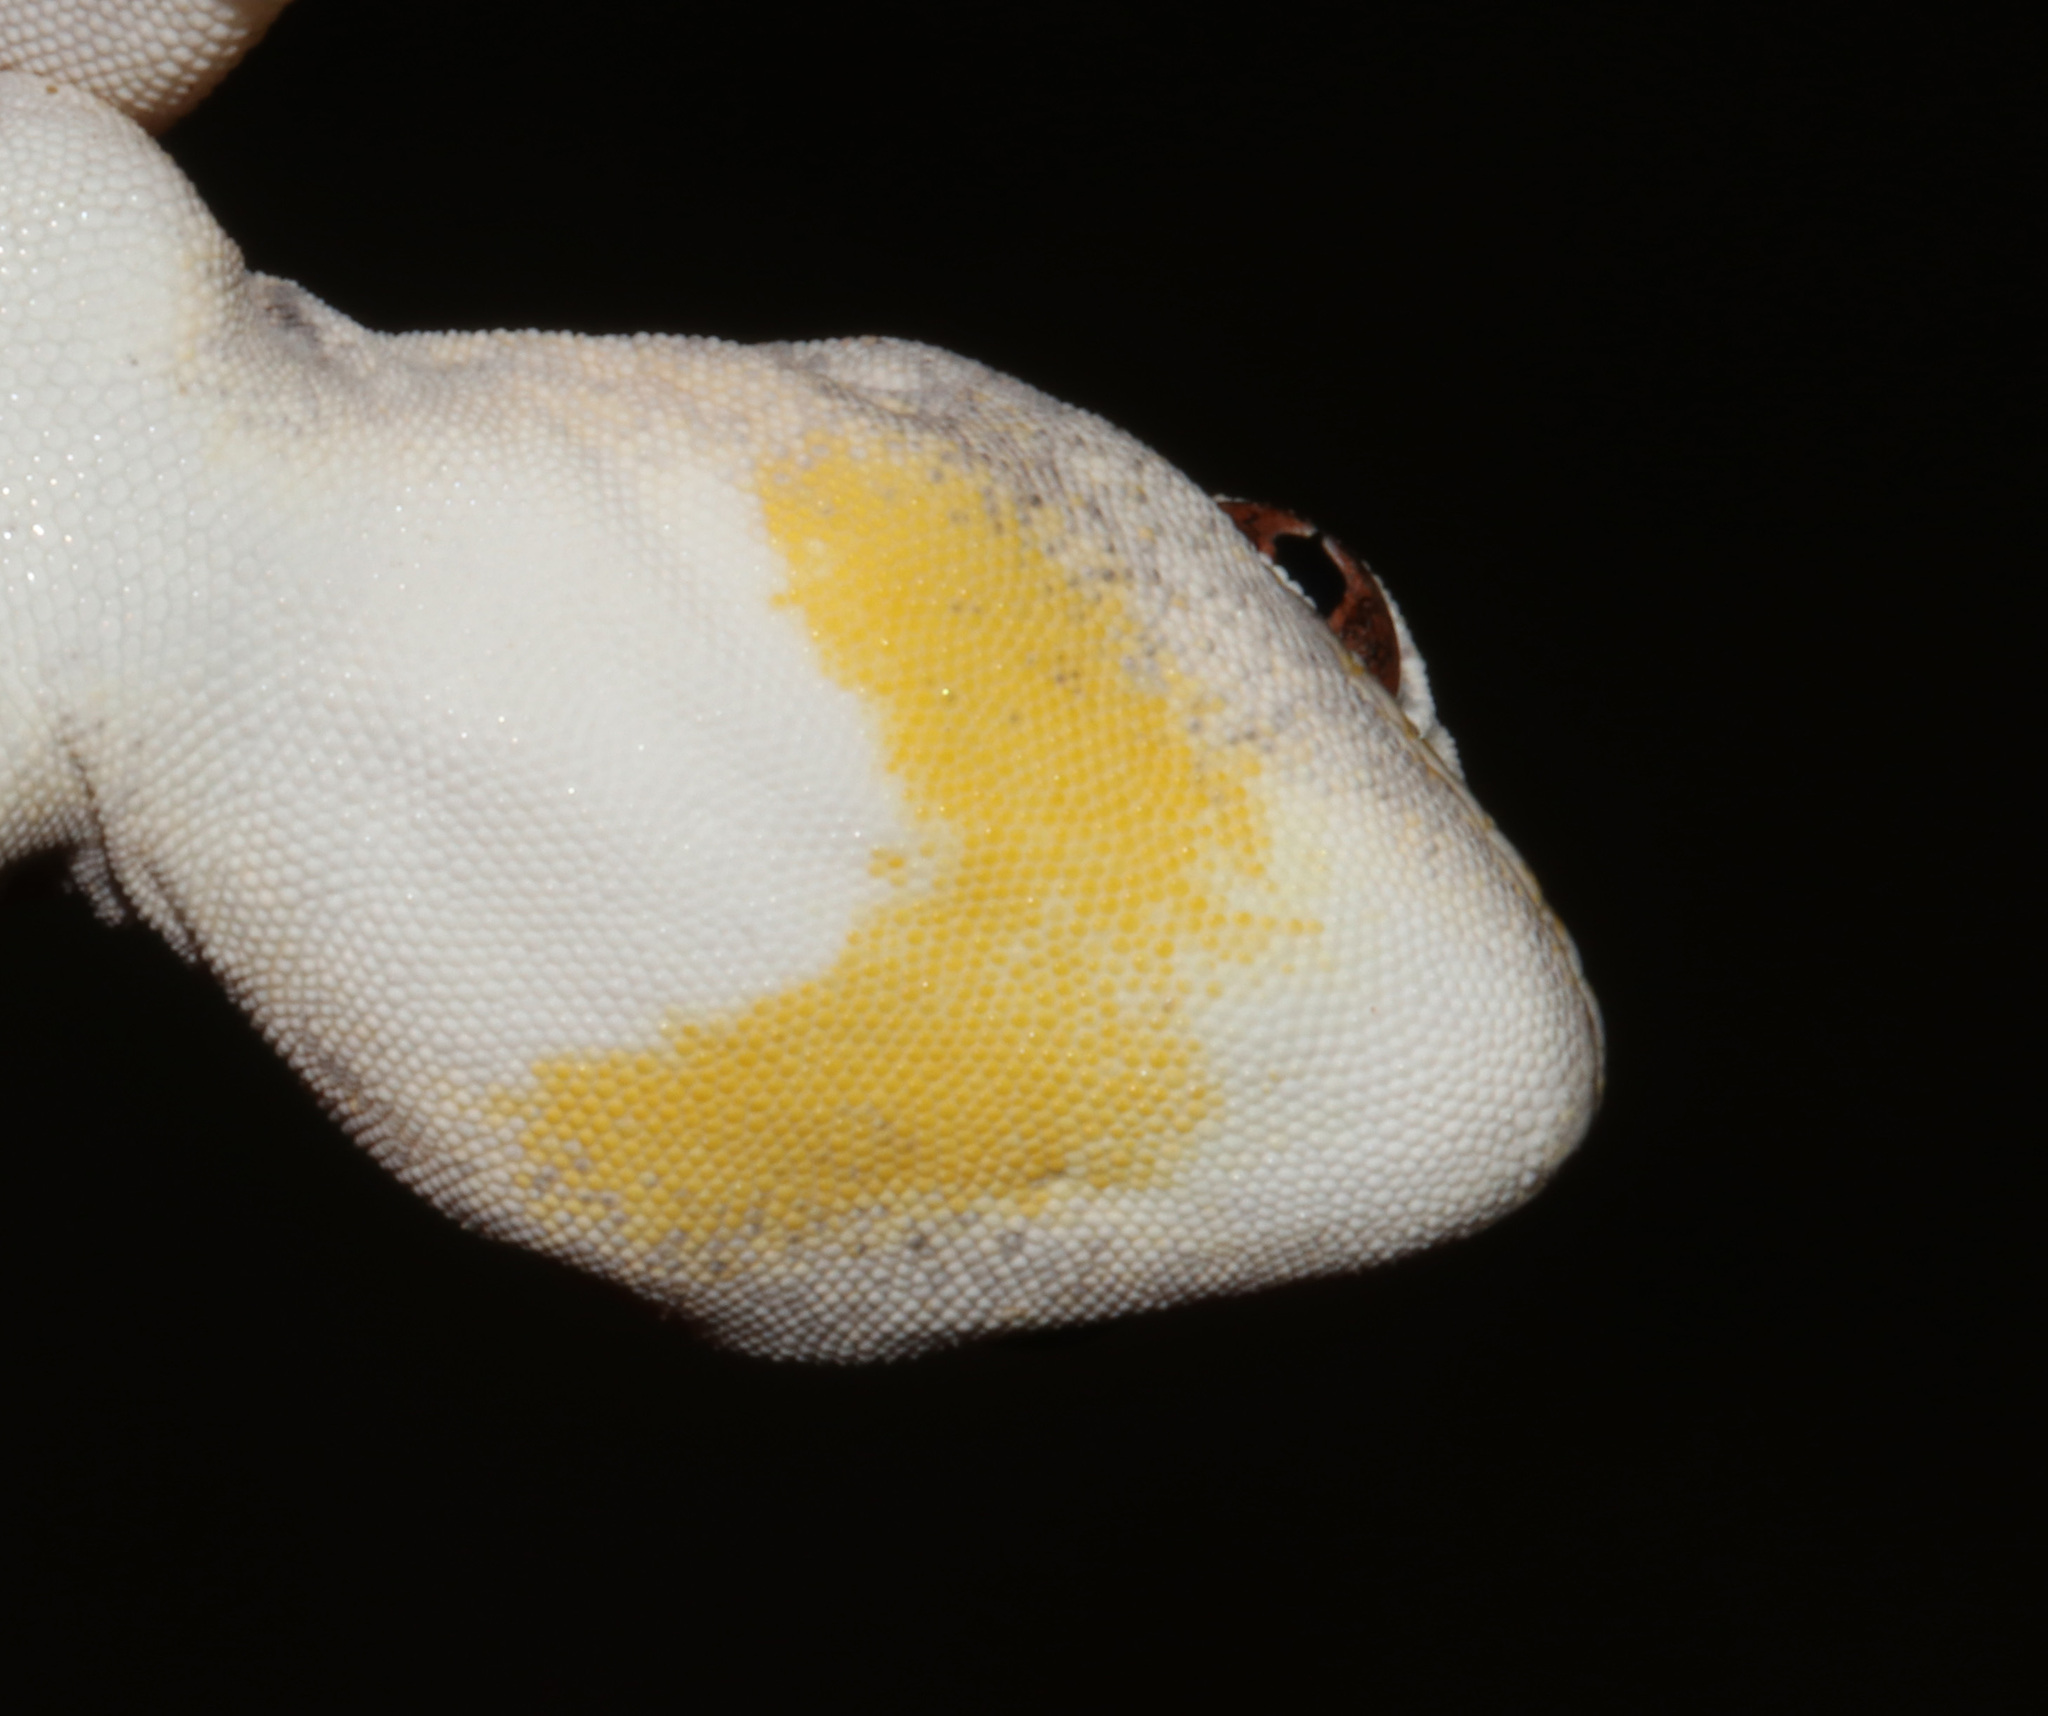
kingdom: Animalia
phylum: Chordata
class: Squamata
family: Gekkonidae
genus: Ptenopus
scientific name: Ptenopus carpi
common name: Namib chirping gecko
